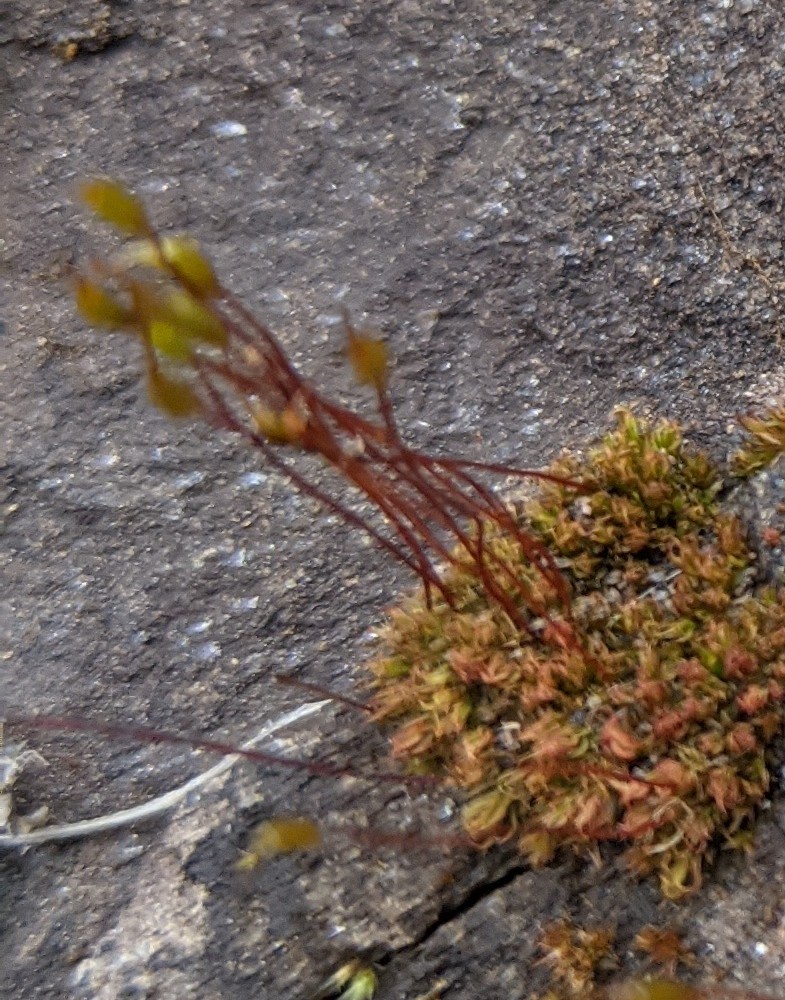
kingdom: Plantae
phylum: Bryophyta
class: Bryopsida
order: Dicranales
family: Ditrichaceae
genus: Ceratodon
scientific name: Ceratodon purpureus
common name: Redshank
